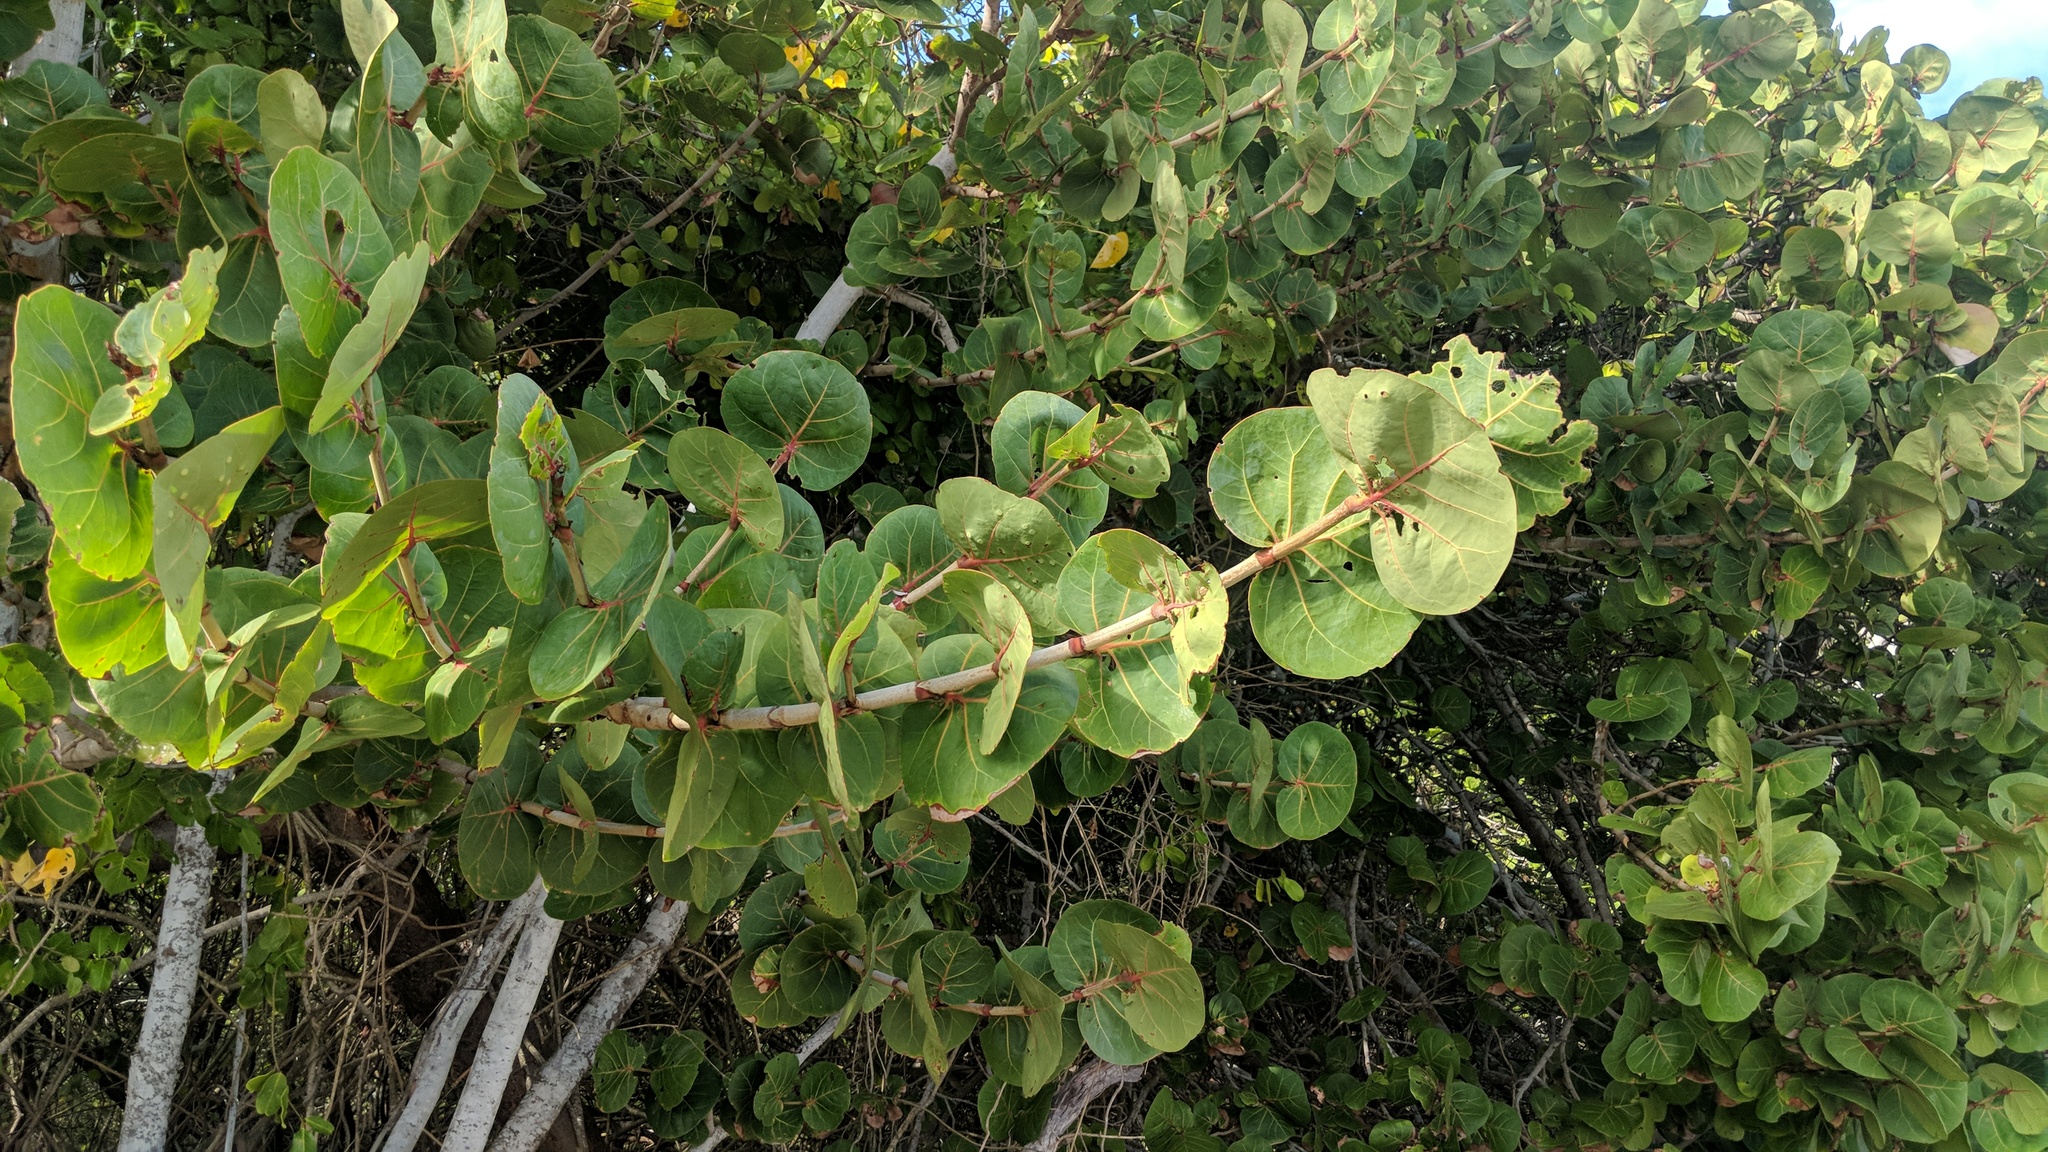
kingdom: Plantae
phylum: Tracheophyta
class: Magnoliopsida
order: Caryophyllales
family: Polygonaceae
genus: Coccoloba
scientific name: Coccoloba uvifera
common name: Seagrape
